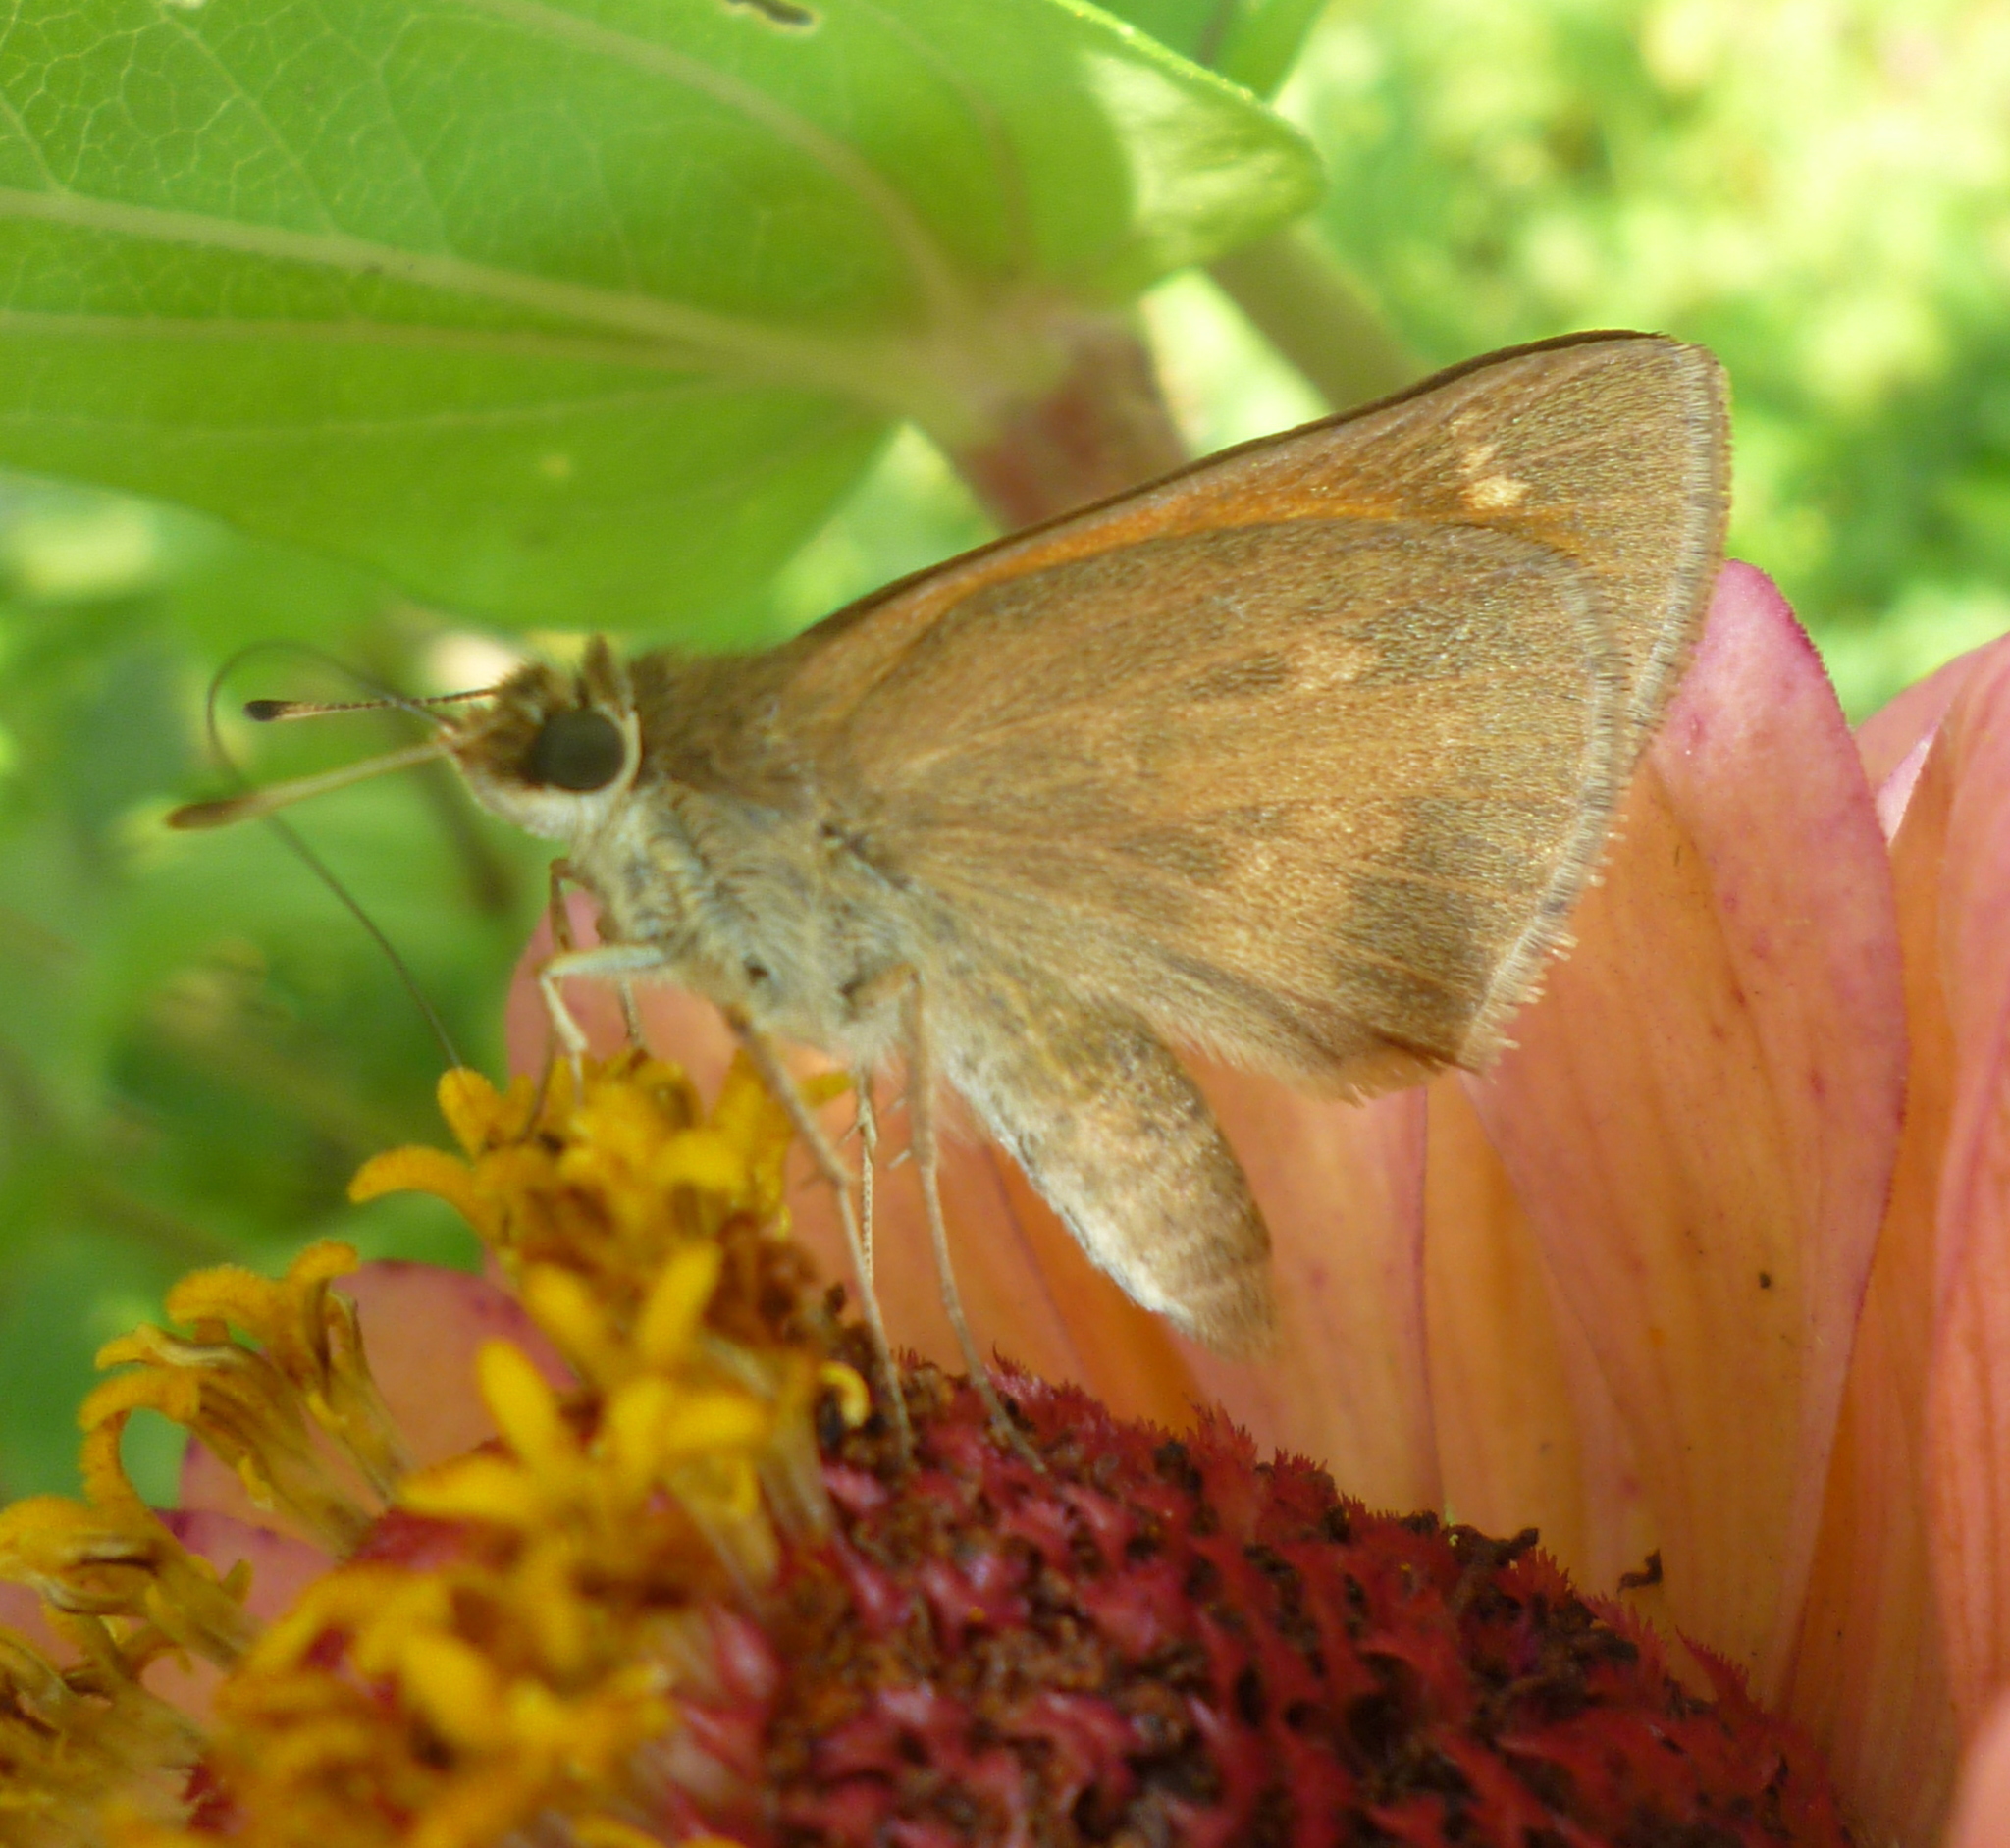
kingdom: Animalia
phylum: Arthropoda
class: Insecta
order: Lepidoptera
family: Hesperiidae
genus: Poanes
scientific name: Poanes viator
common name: Broad-winged skipper
